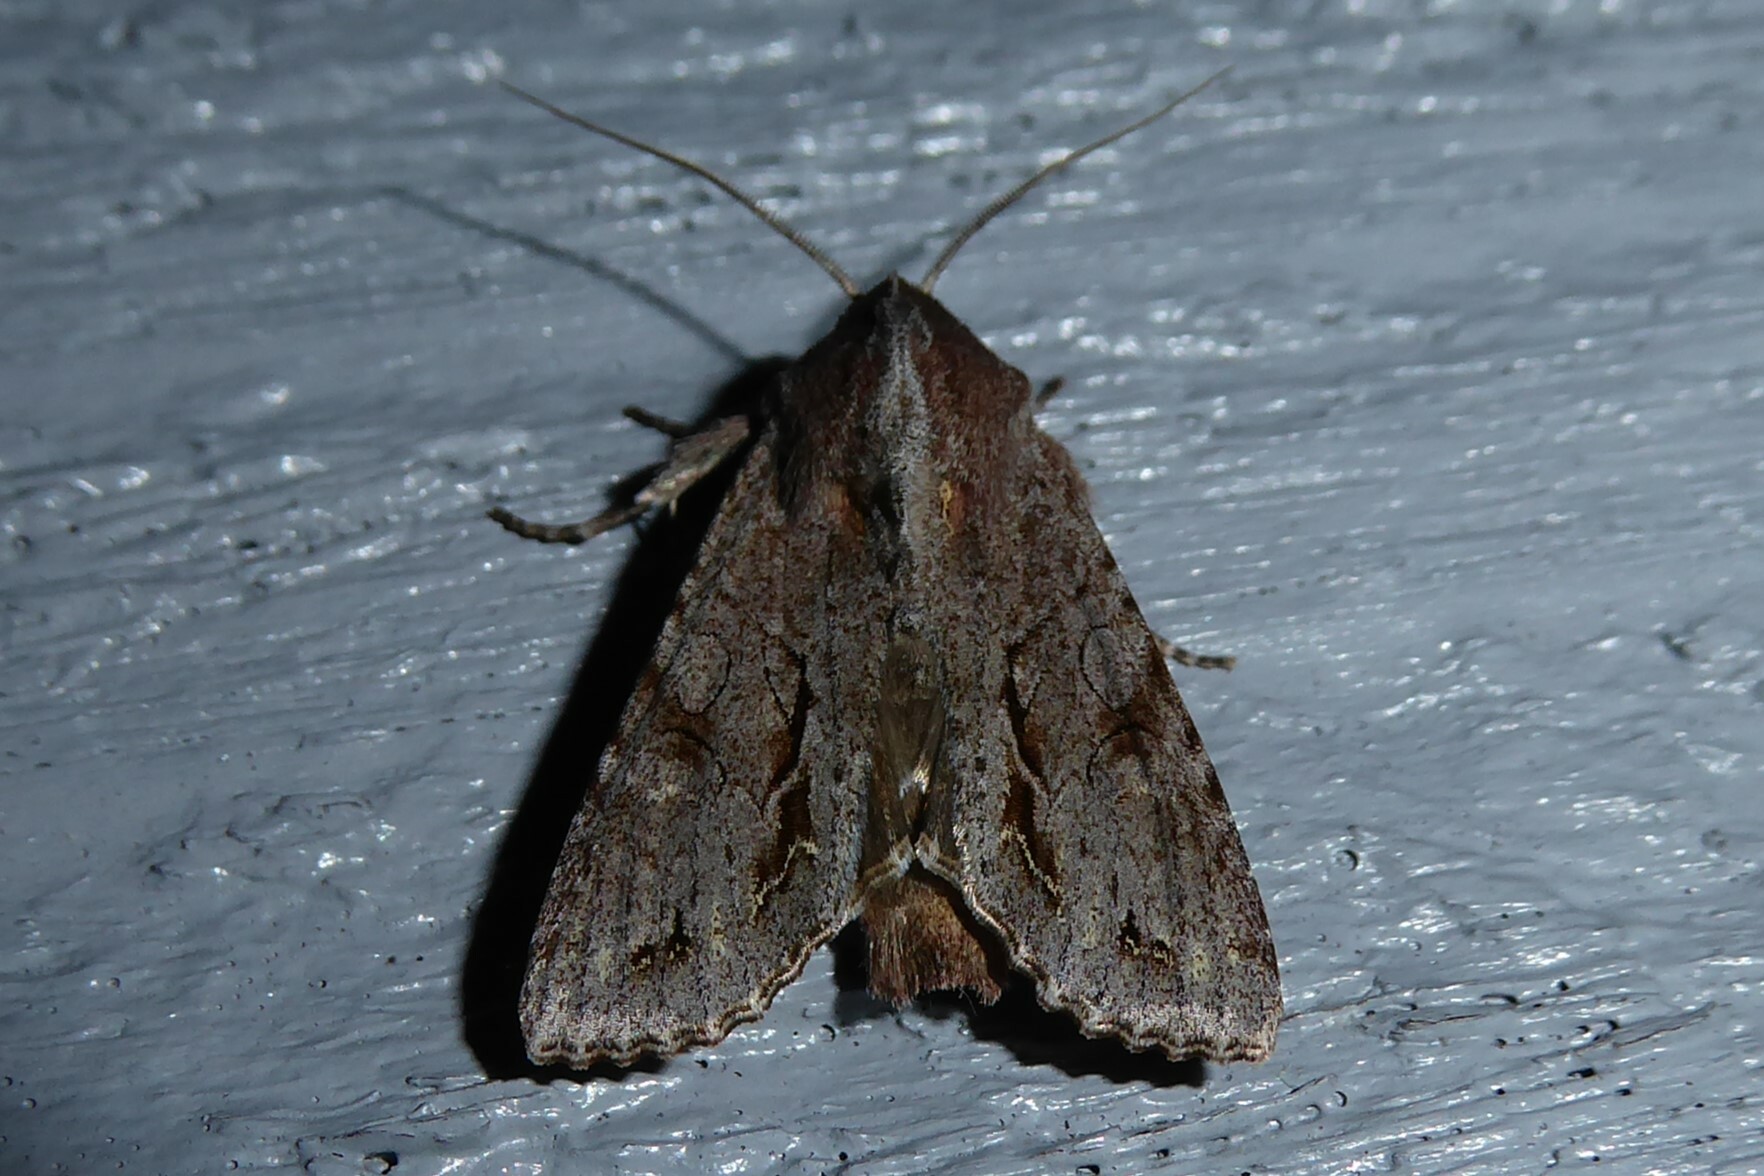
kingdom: Animalia
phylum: Arthropoda
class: Insecta
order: Lepidoptera
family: Noctuidae
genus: Ichneutica
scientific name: Ichneutica
